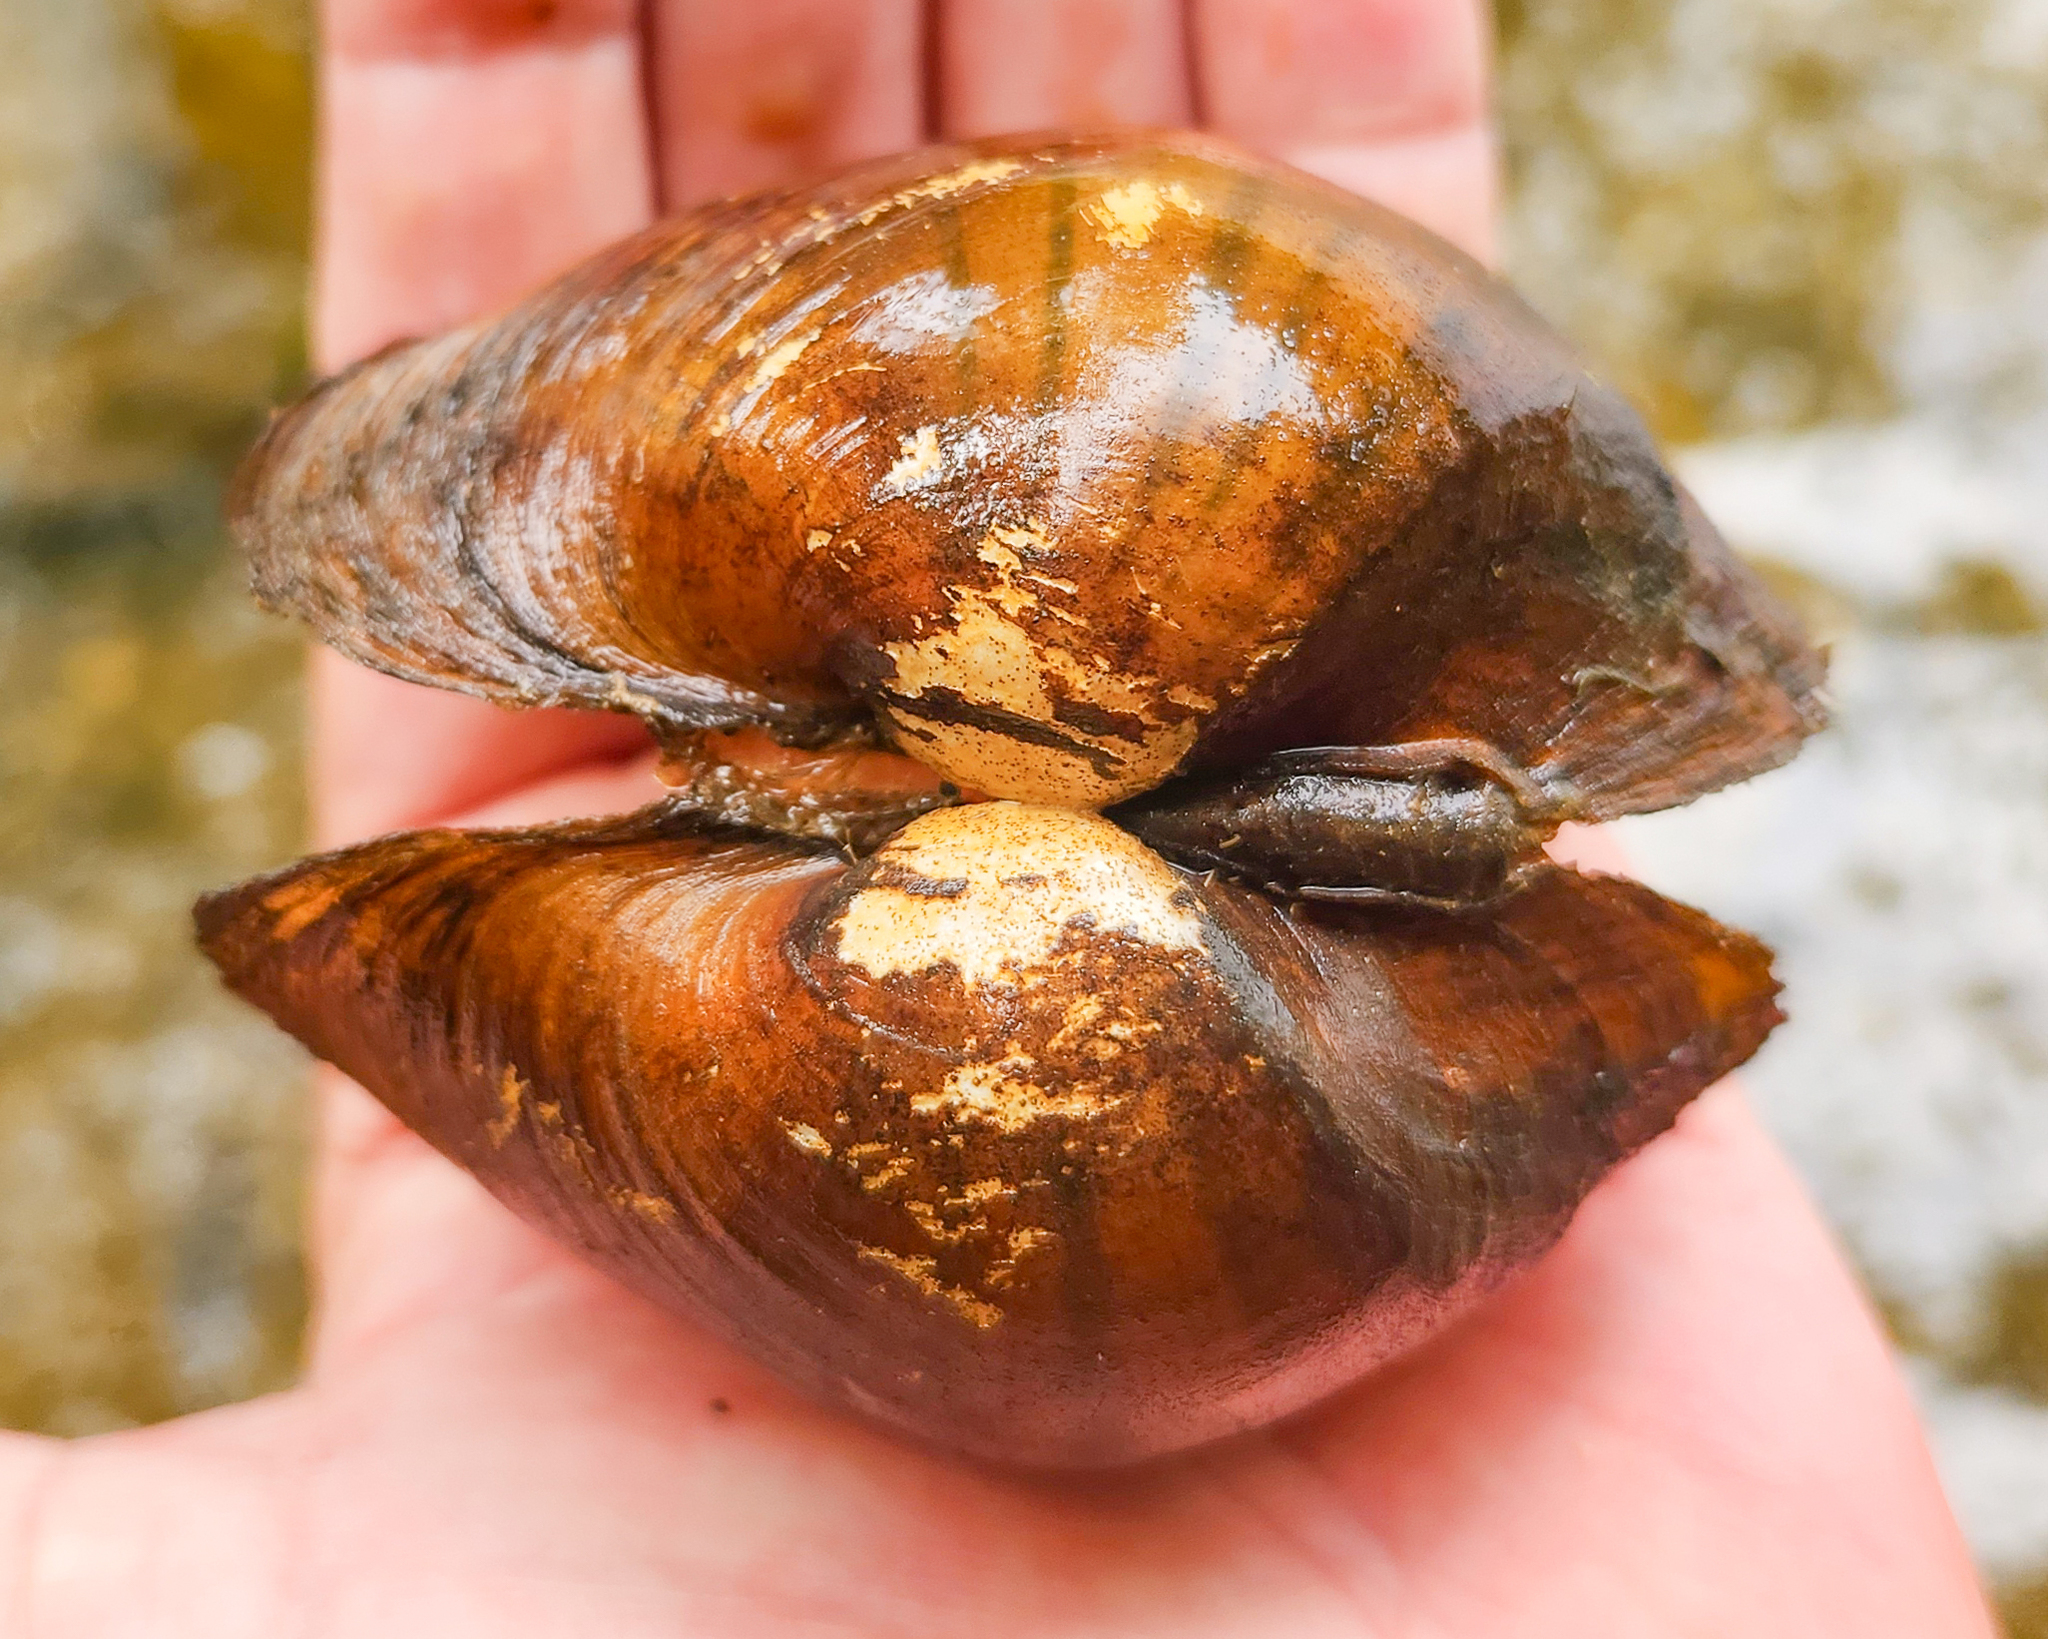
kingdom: Animalia
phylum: Mollusca
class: Bivalvia
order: Unionida
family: Unionidae
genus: Lampsilis
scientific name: Lampsilis ornata
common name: Southern pocketbook
